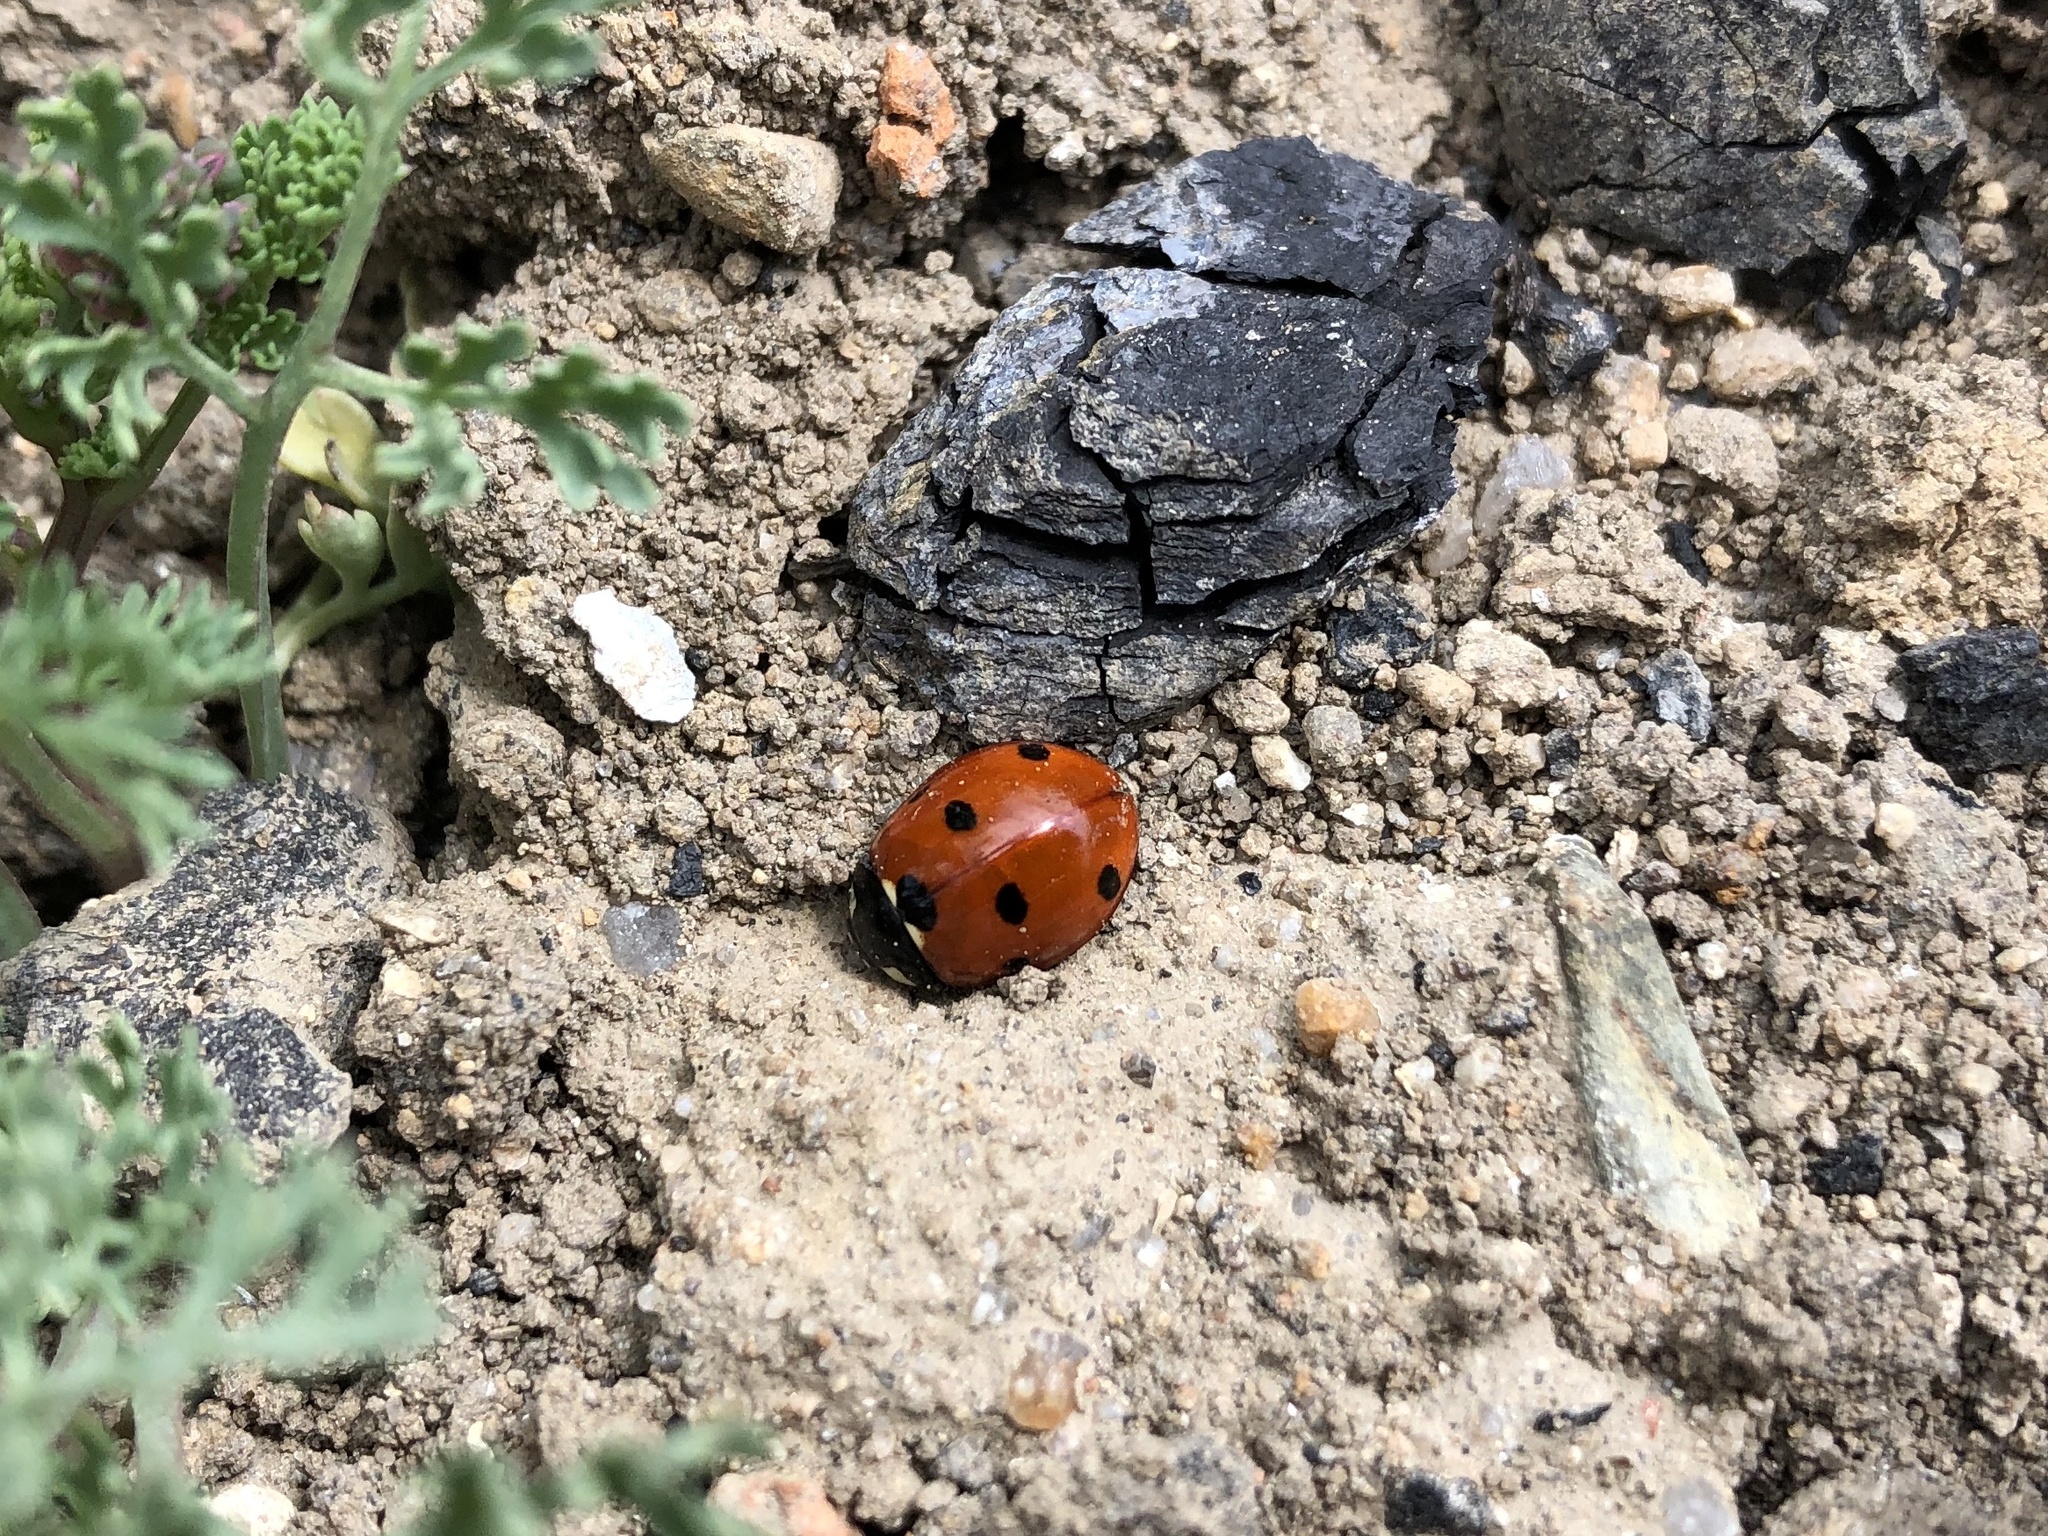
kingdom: Animalia
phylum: Arthropoda
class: Insecta
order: Coleoptera
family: Coccinellidae
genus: Coccinella
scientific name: Coccinella septempunctata
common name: Sevenspotted lady beetle
